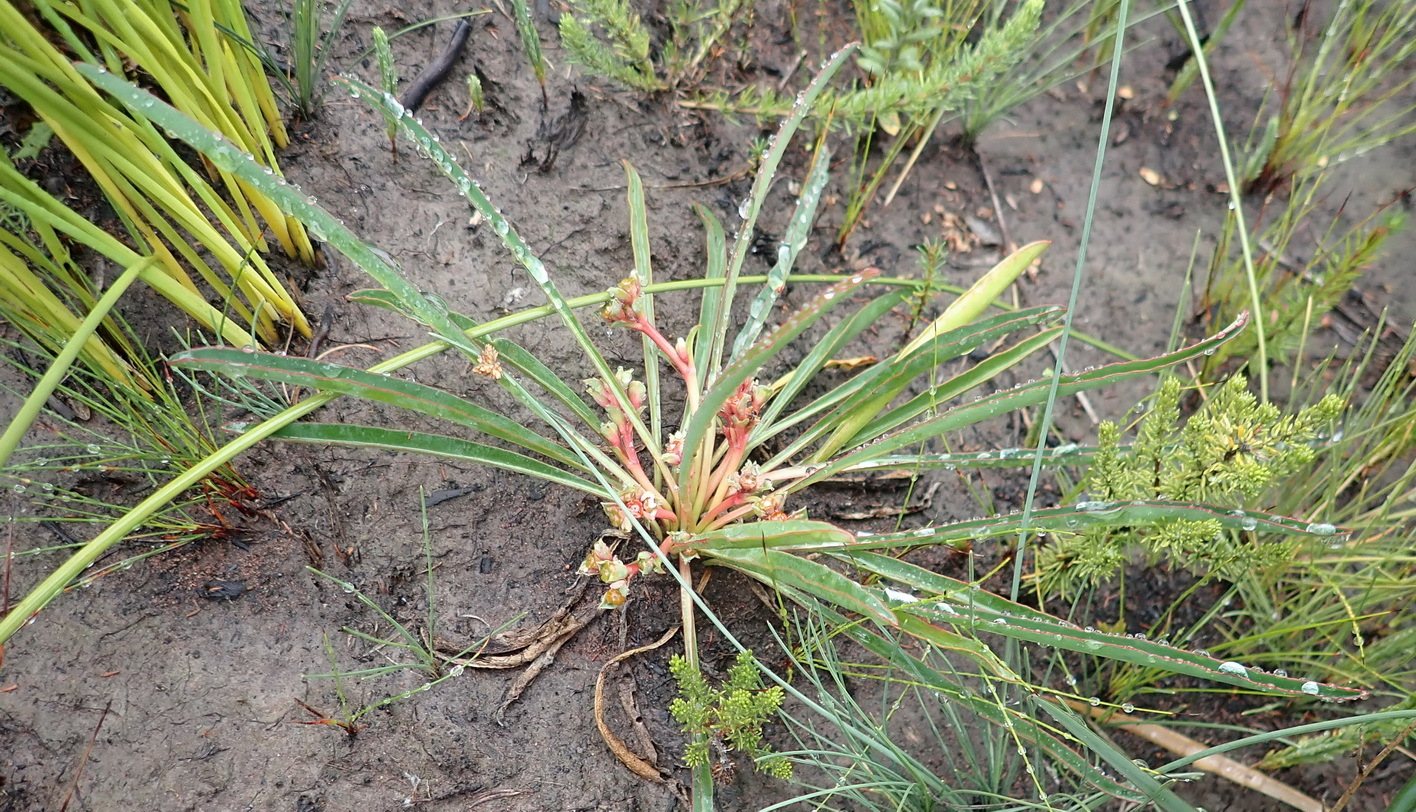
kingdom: Plantae
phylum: Tracheophyta
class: Magnoliopsida
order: Malpighiales
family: Euphorbiaceae
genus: Euphorbia
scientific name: Euphorbia silenifolia
